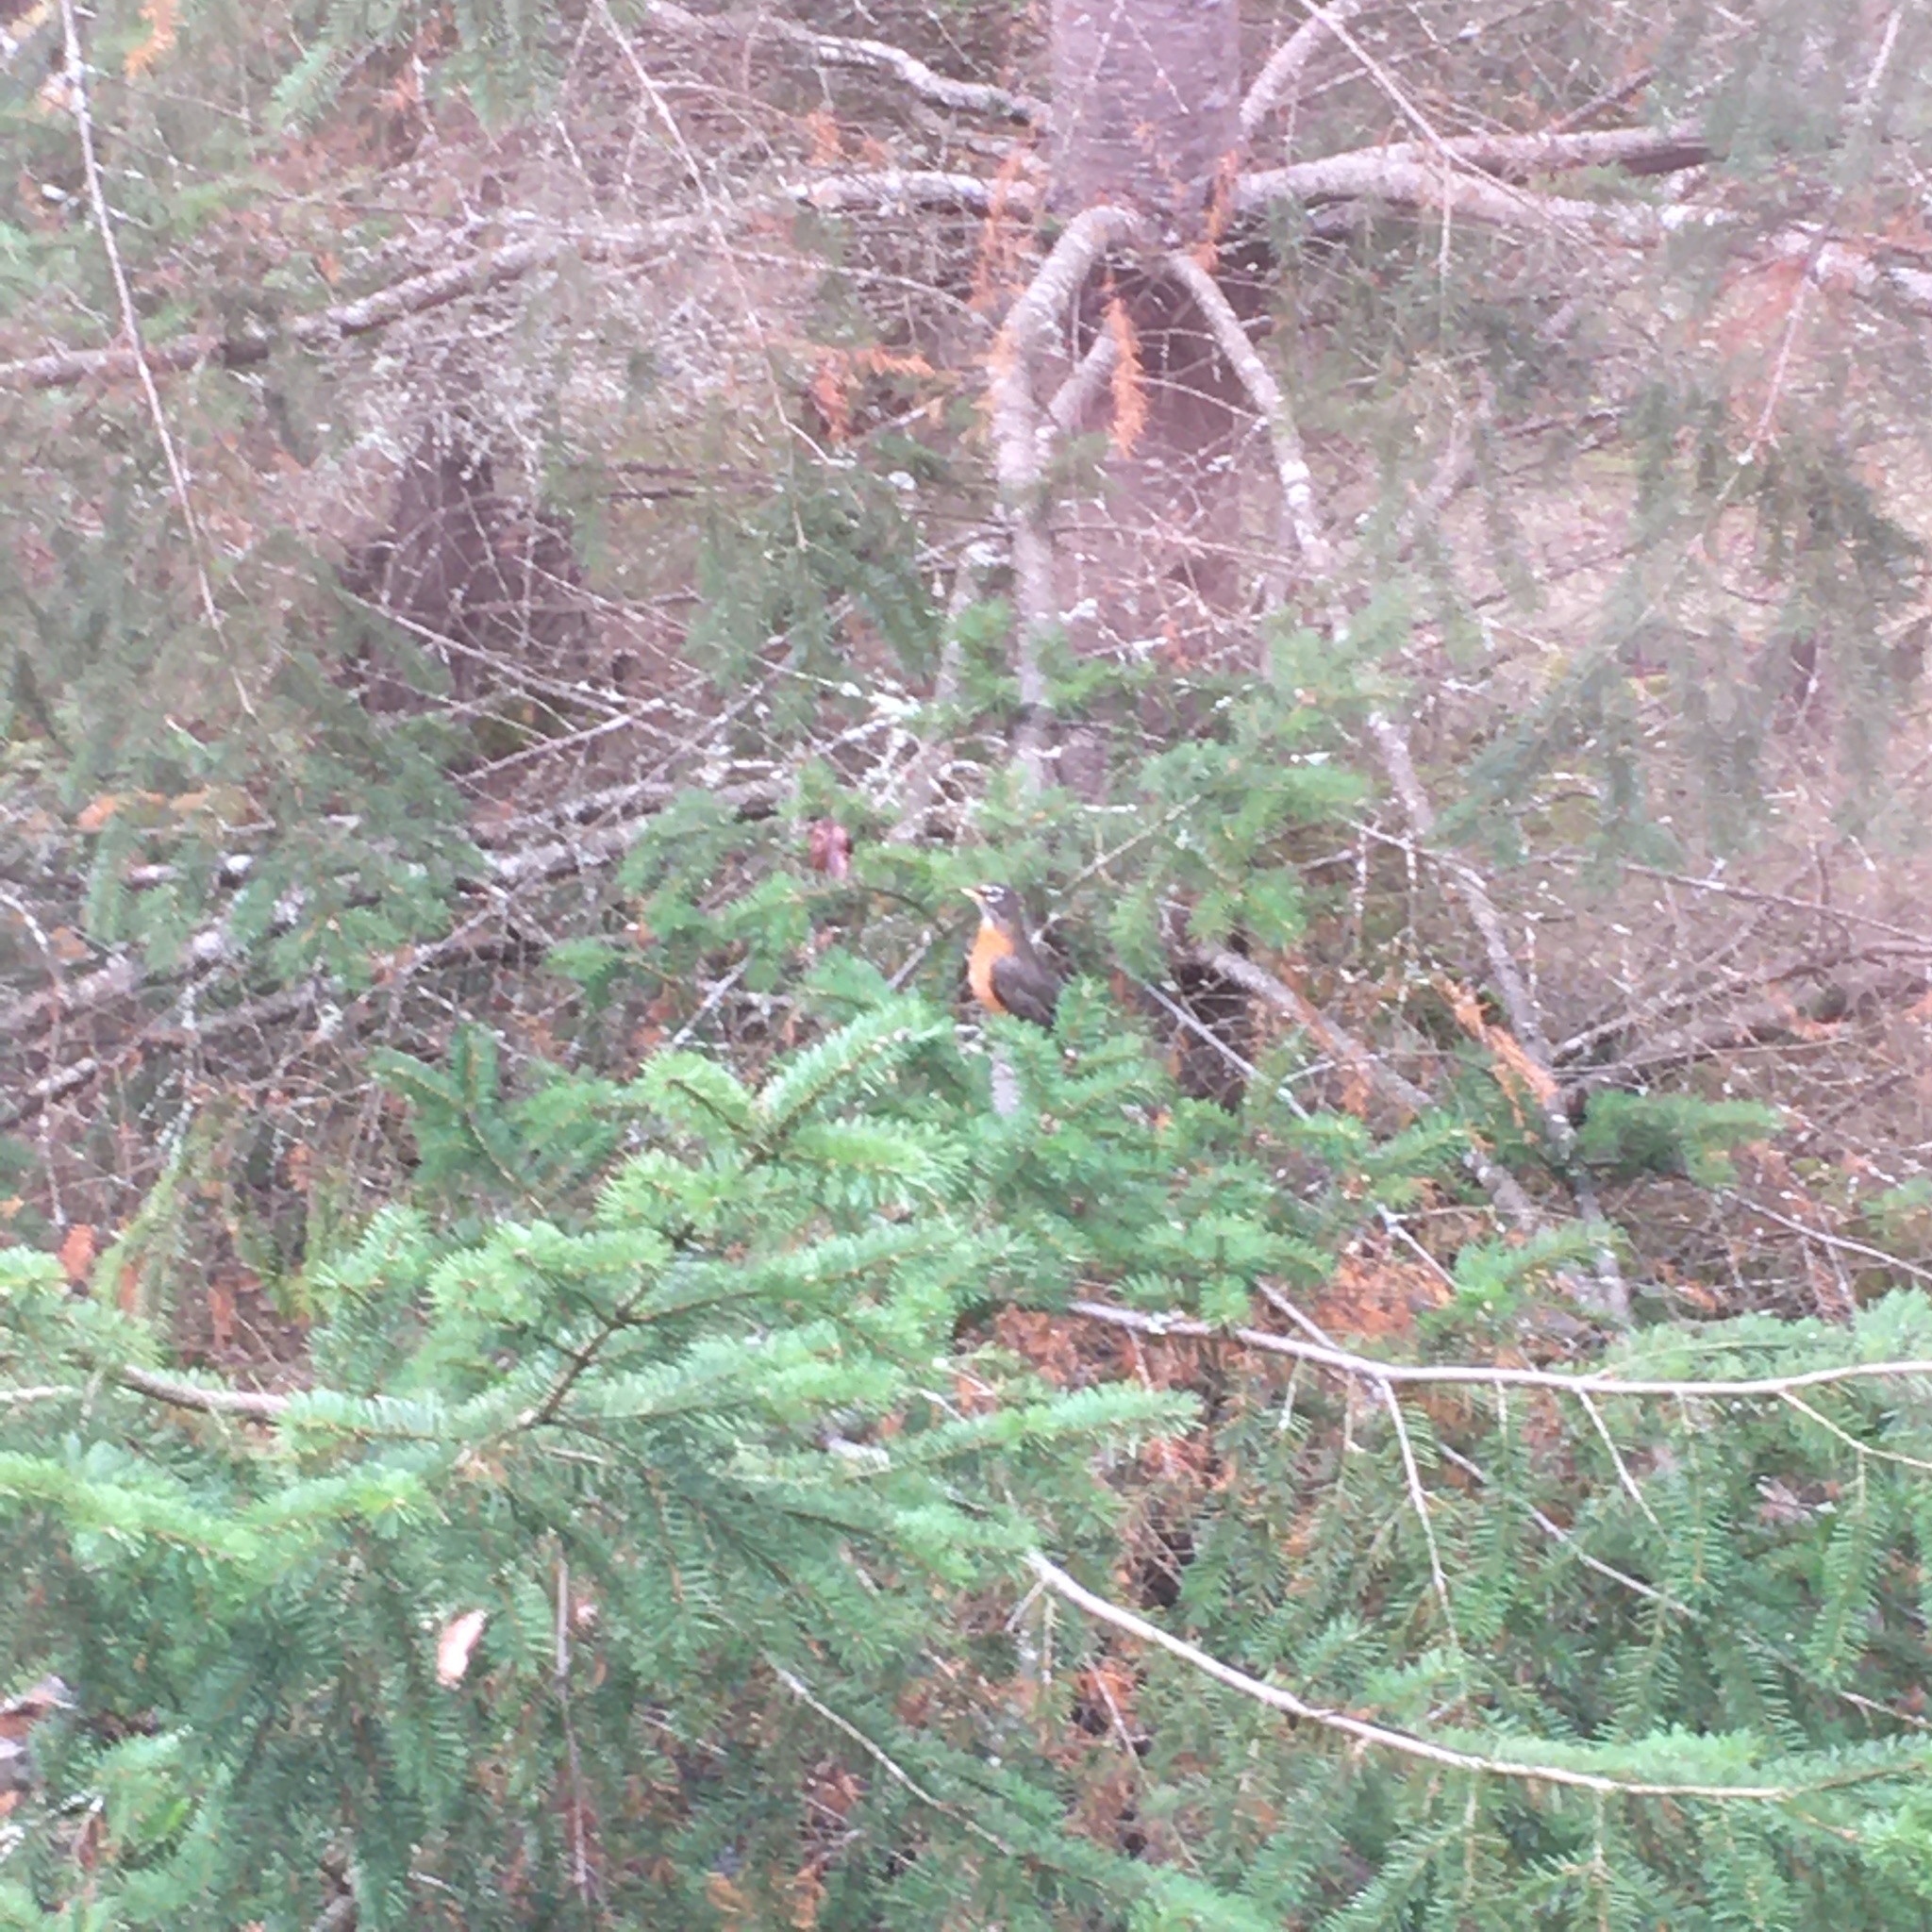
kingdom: Animalia
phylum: Chordata
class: Aves
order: Passeriformes
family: Turdidae
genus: Turdus
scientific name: Turdus migratorius
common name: American robin
